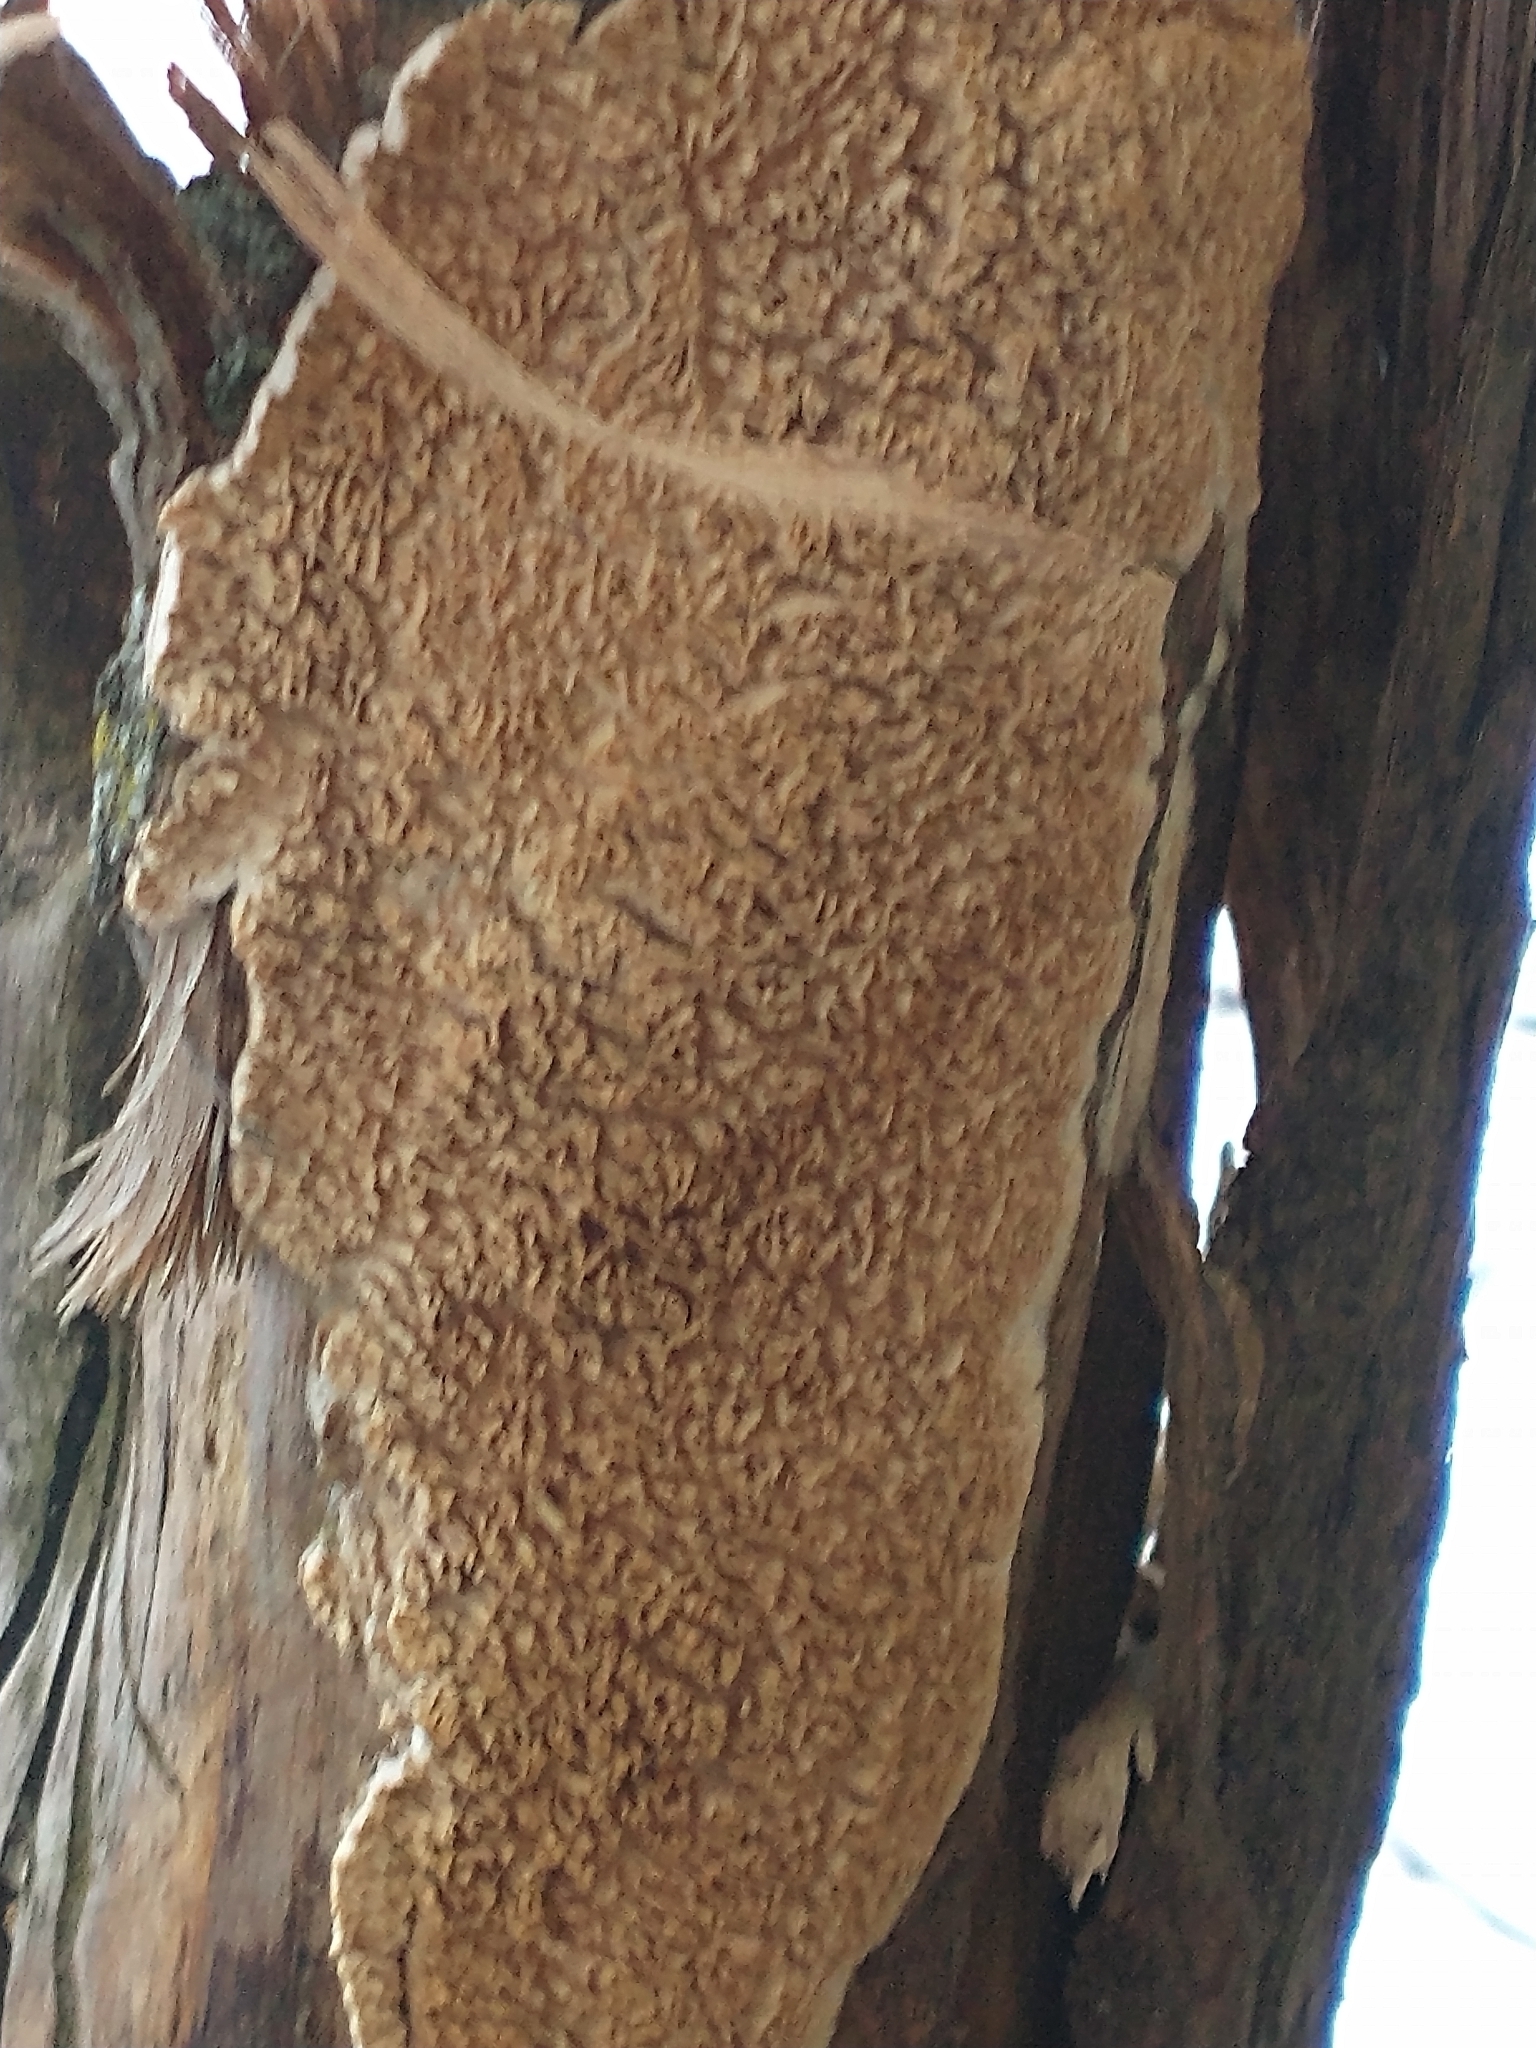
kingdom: Fungi
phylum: Basidiomycota
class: Agaricomycetes
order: Polyporales
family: Irpicaceae
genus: Irpex
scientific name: Irpex lacteus
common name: Milk-white toothed polypore
